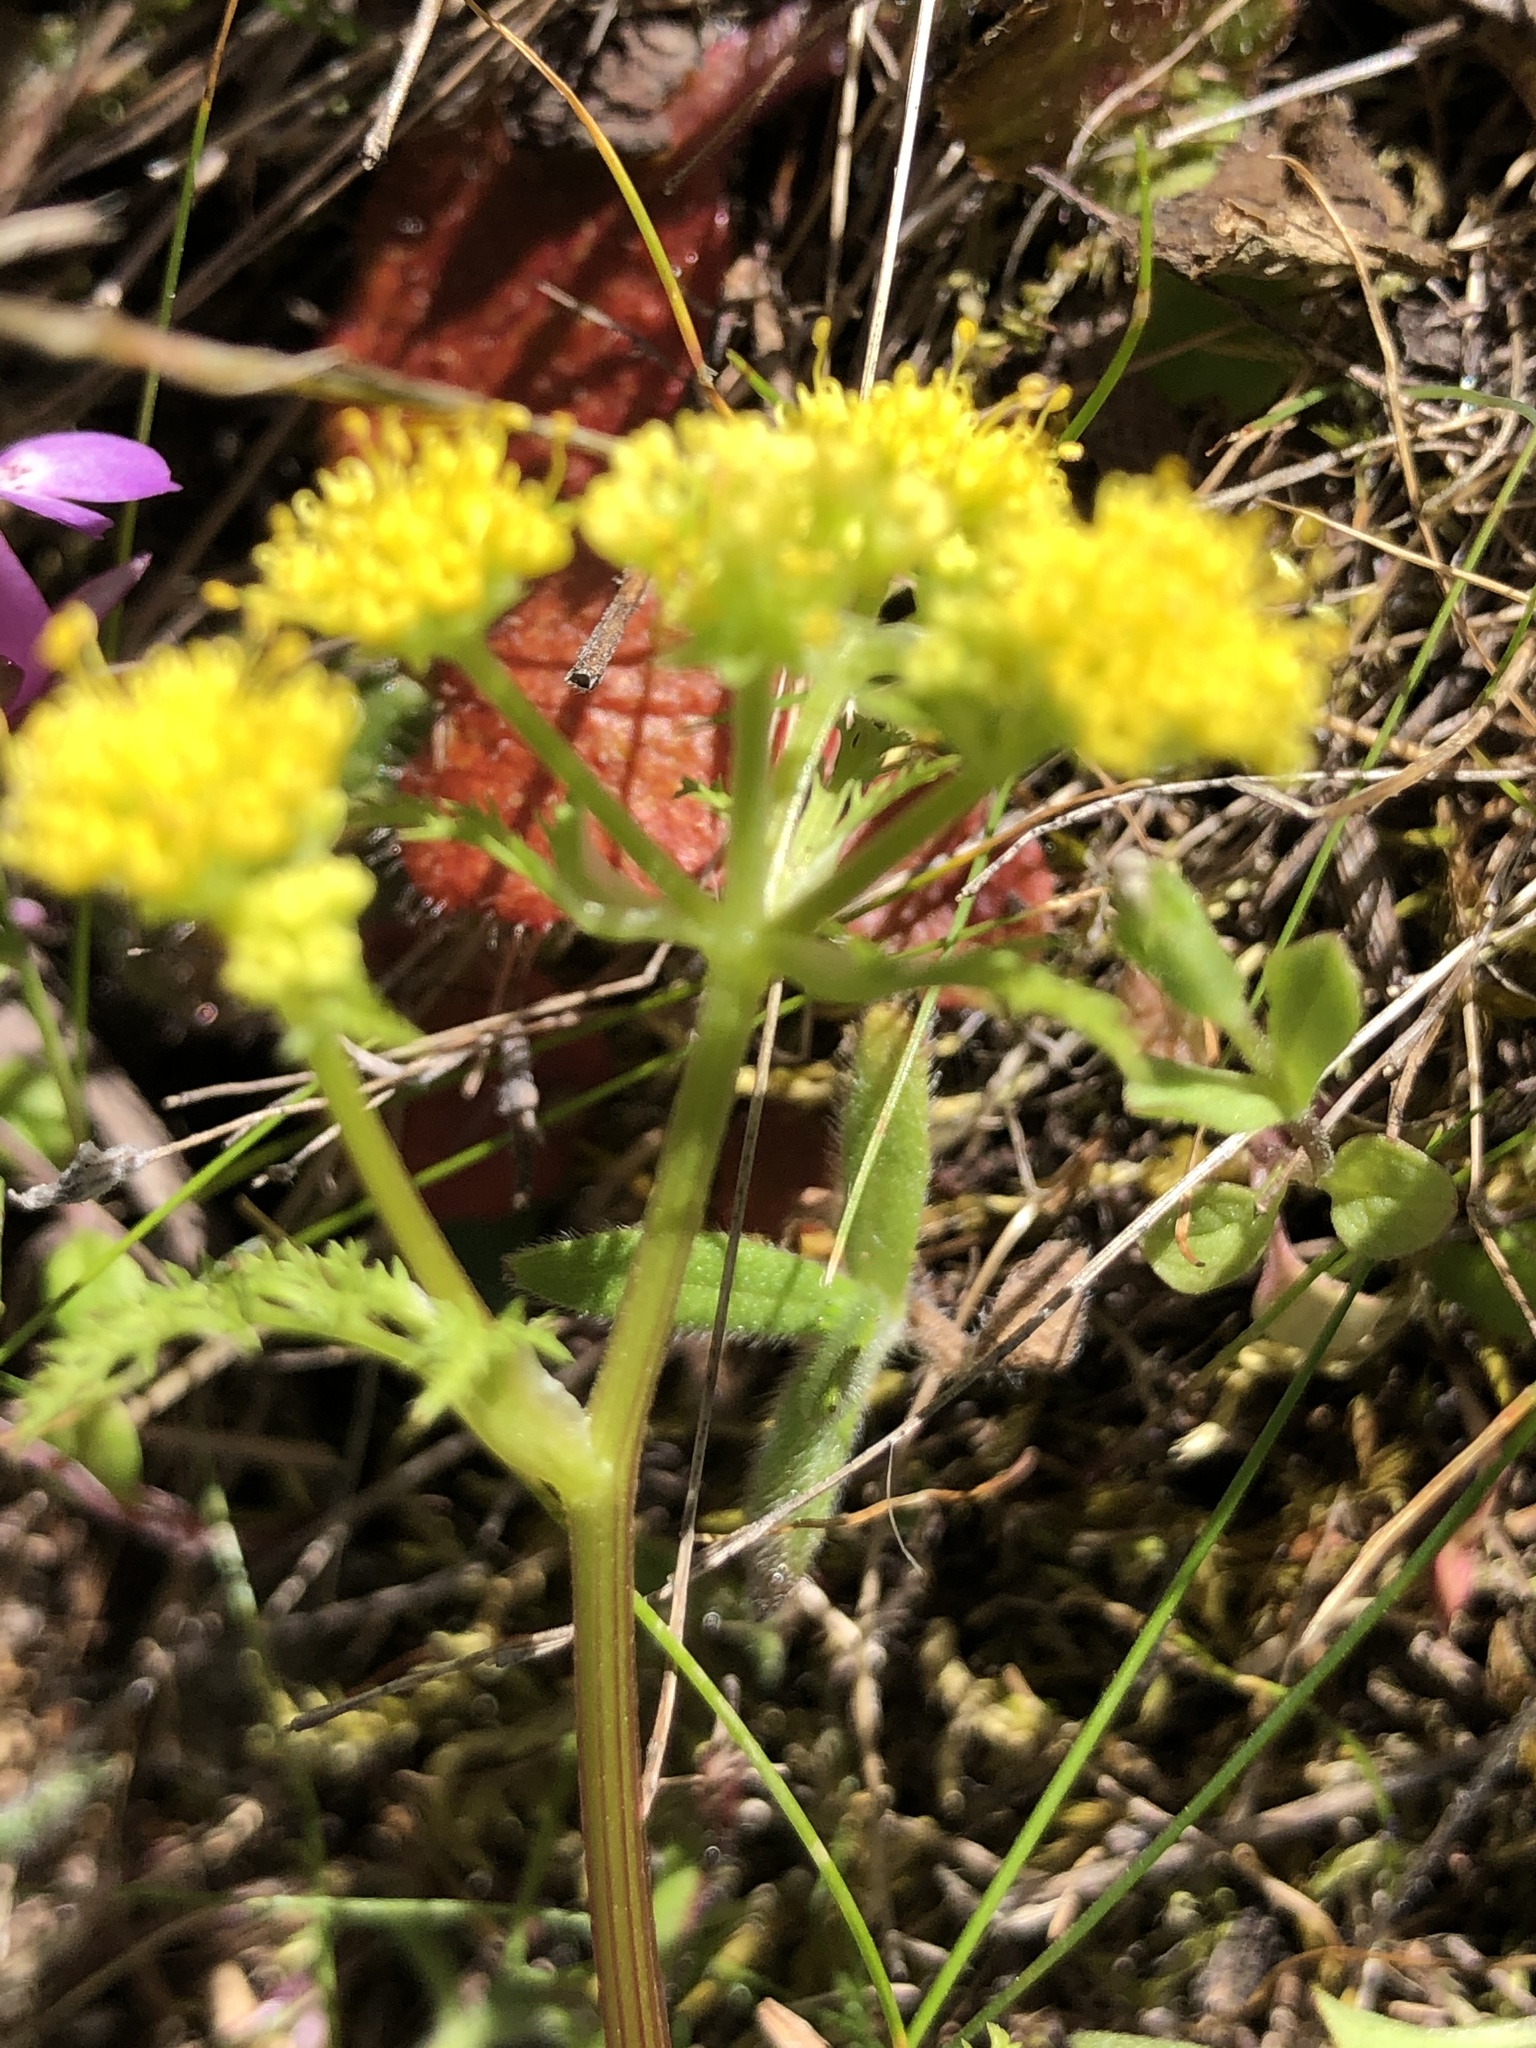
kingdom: Plantae
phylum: Tracheophyta
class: Magnoliopsida
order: Apiales
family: Apiaceae
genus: Sanicula
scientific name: Sanicula tuberosa
